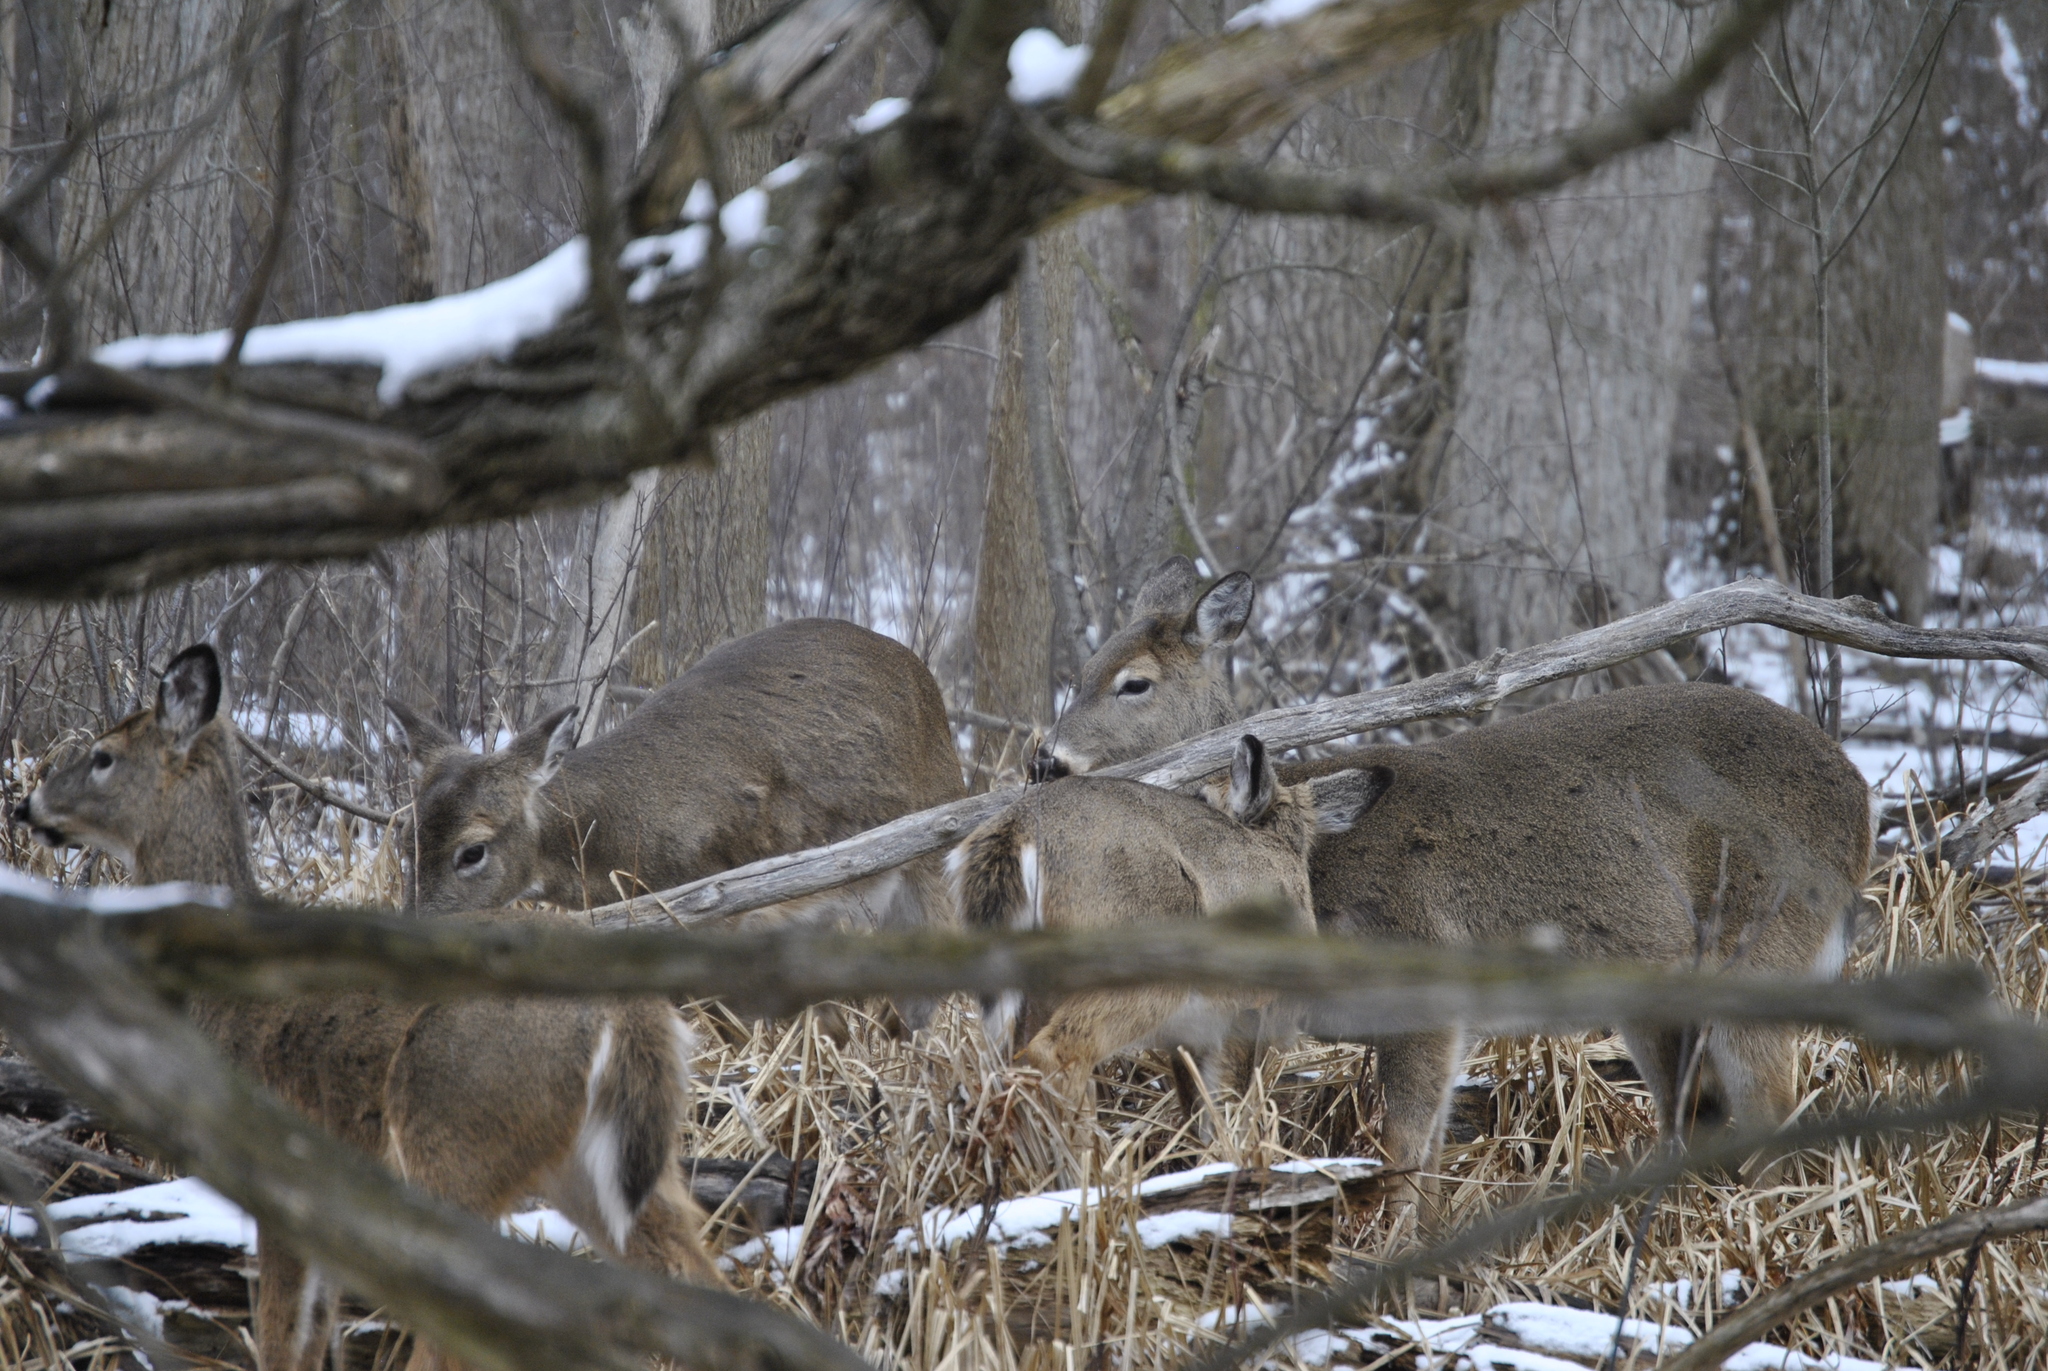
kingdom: Animalia
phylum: Chordata
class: Mammalia
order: Artiodactyla
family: Cervidae
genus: Odocoileus
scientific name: Odocoileus virginianus
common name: White-tailed deer
